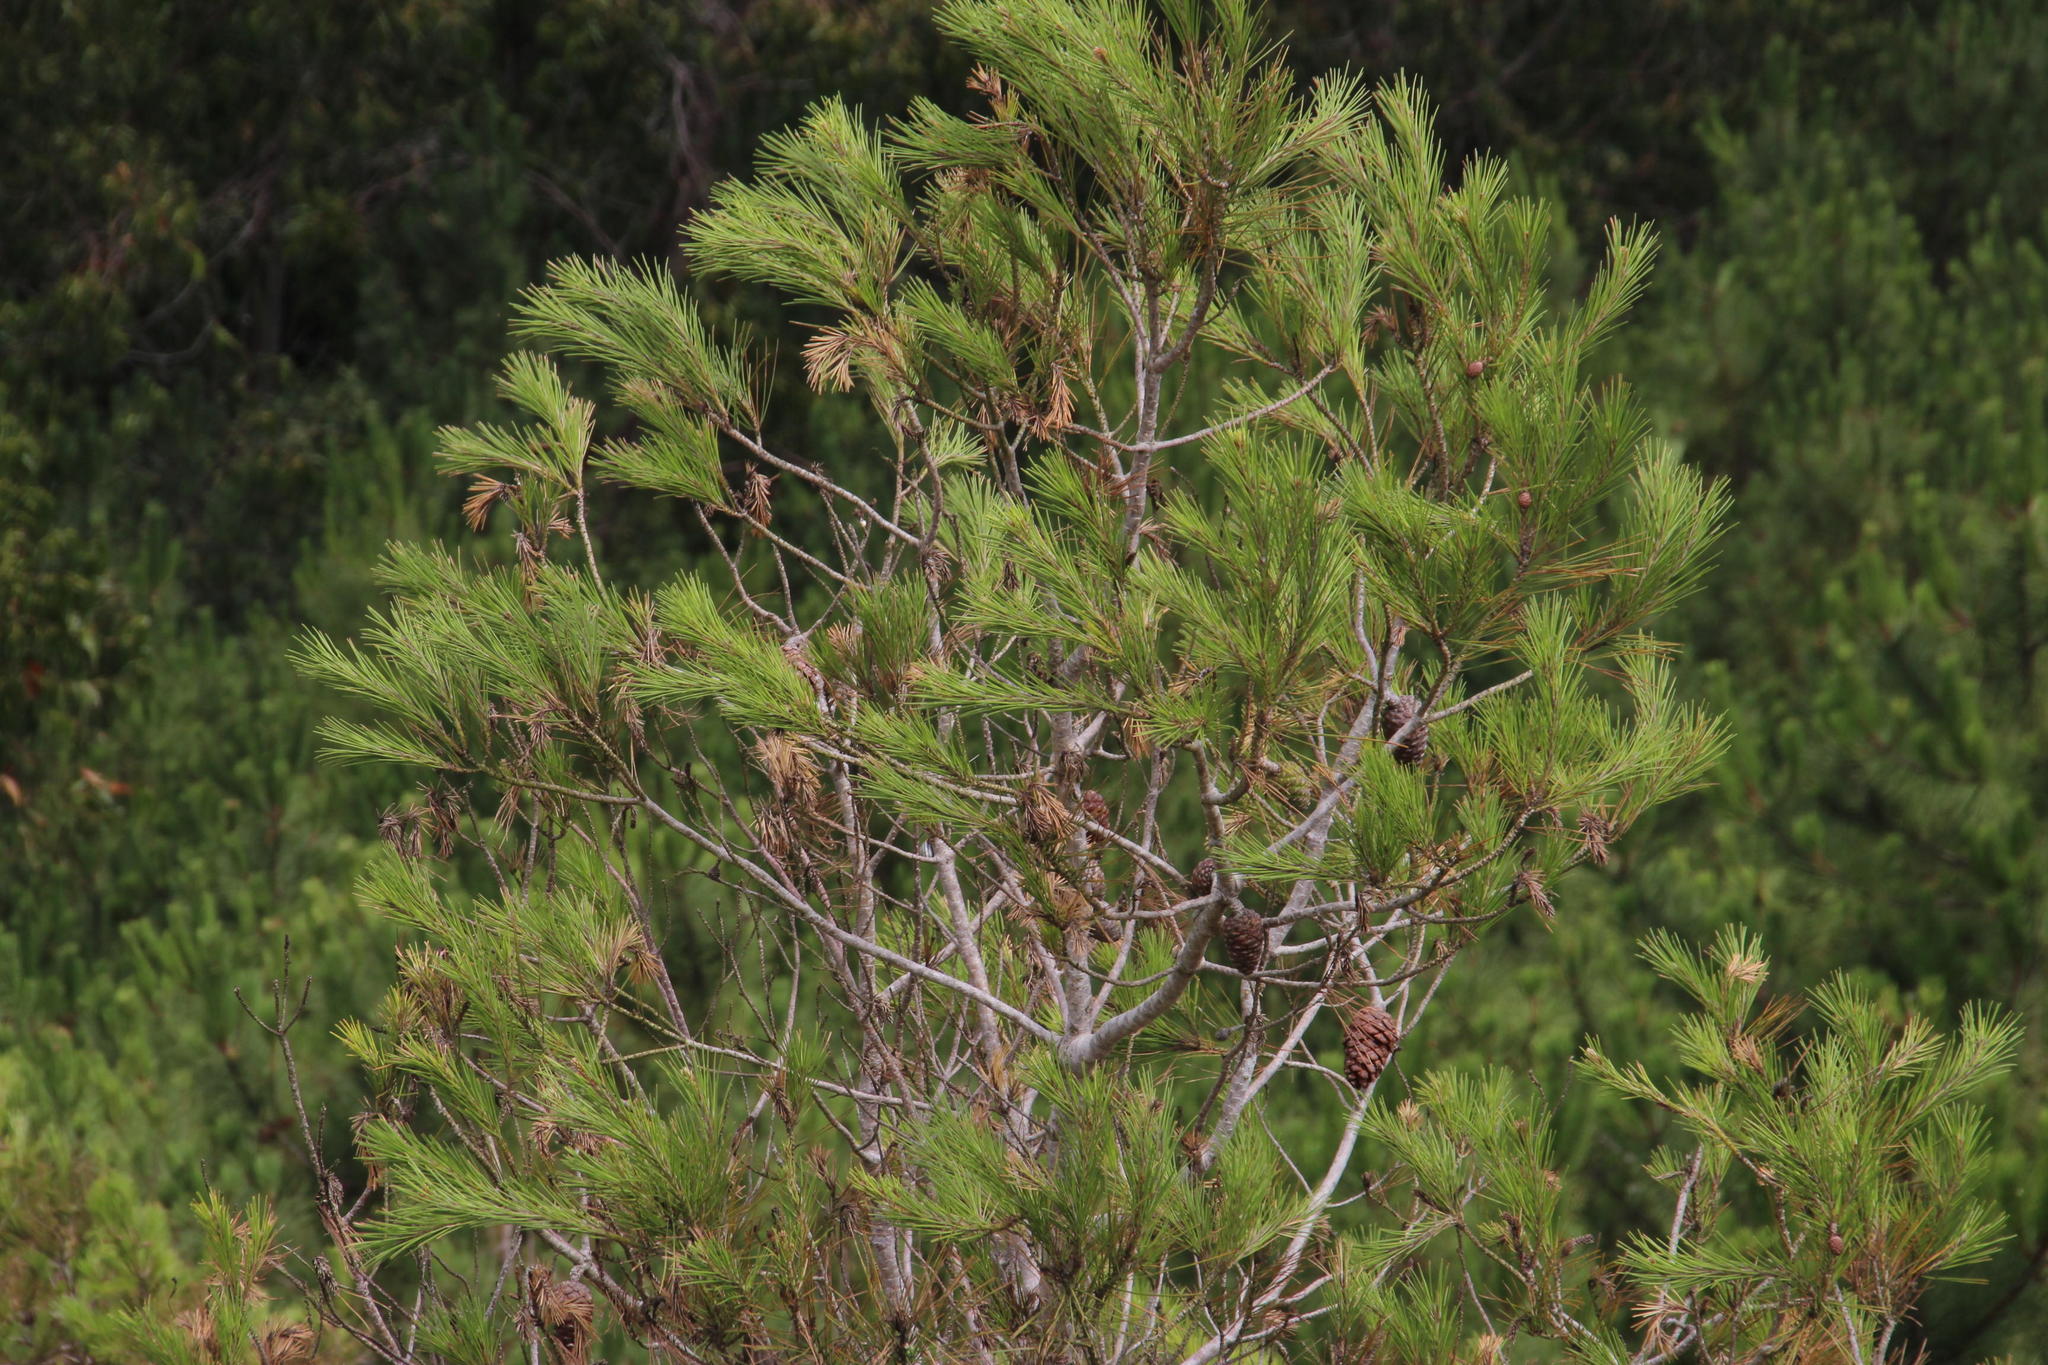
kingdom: Plantae
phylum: Tracheophyta
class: Pinopsida
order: Pinales
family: Pinaceae
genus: Pinus
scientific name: Pinus halepensis
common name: Aleppo pine
